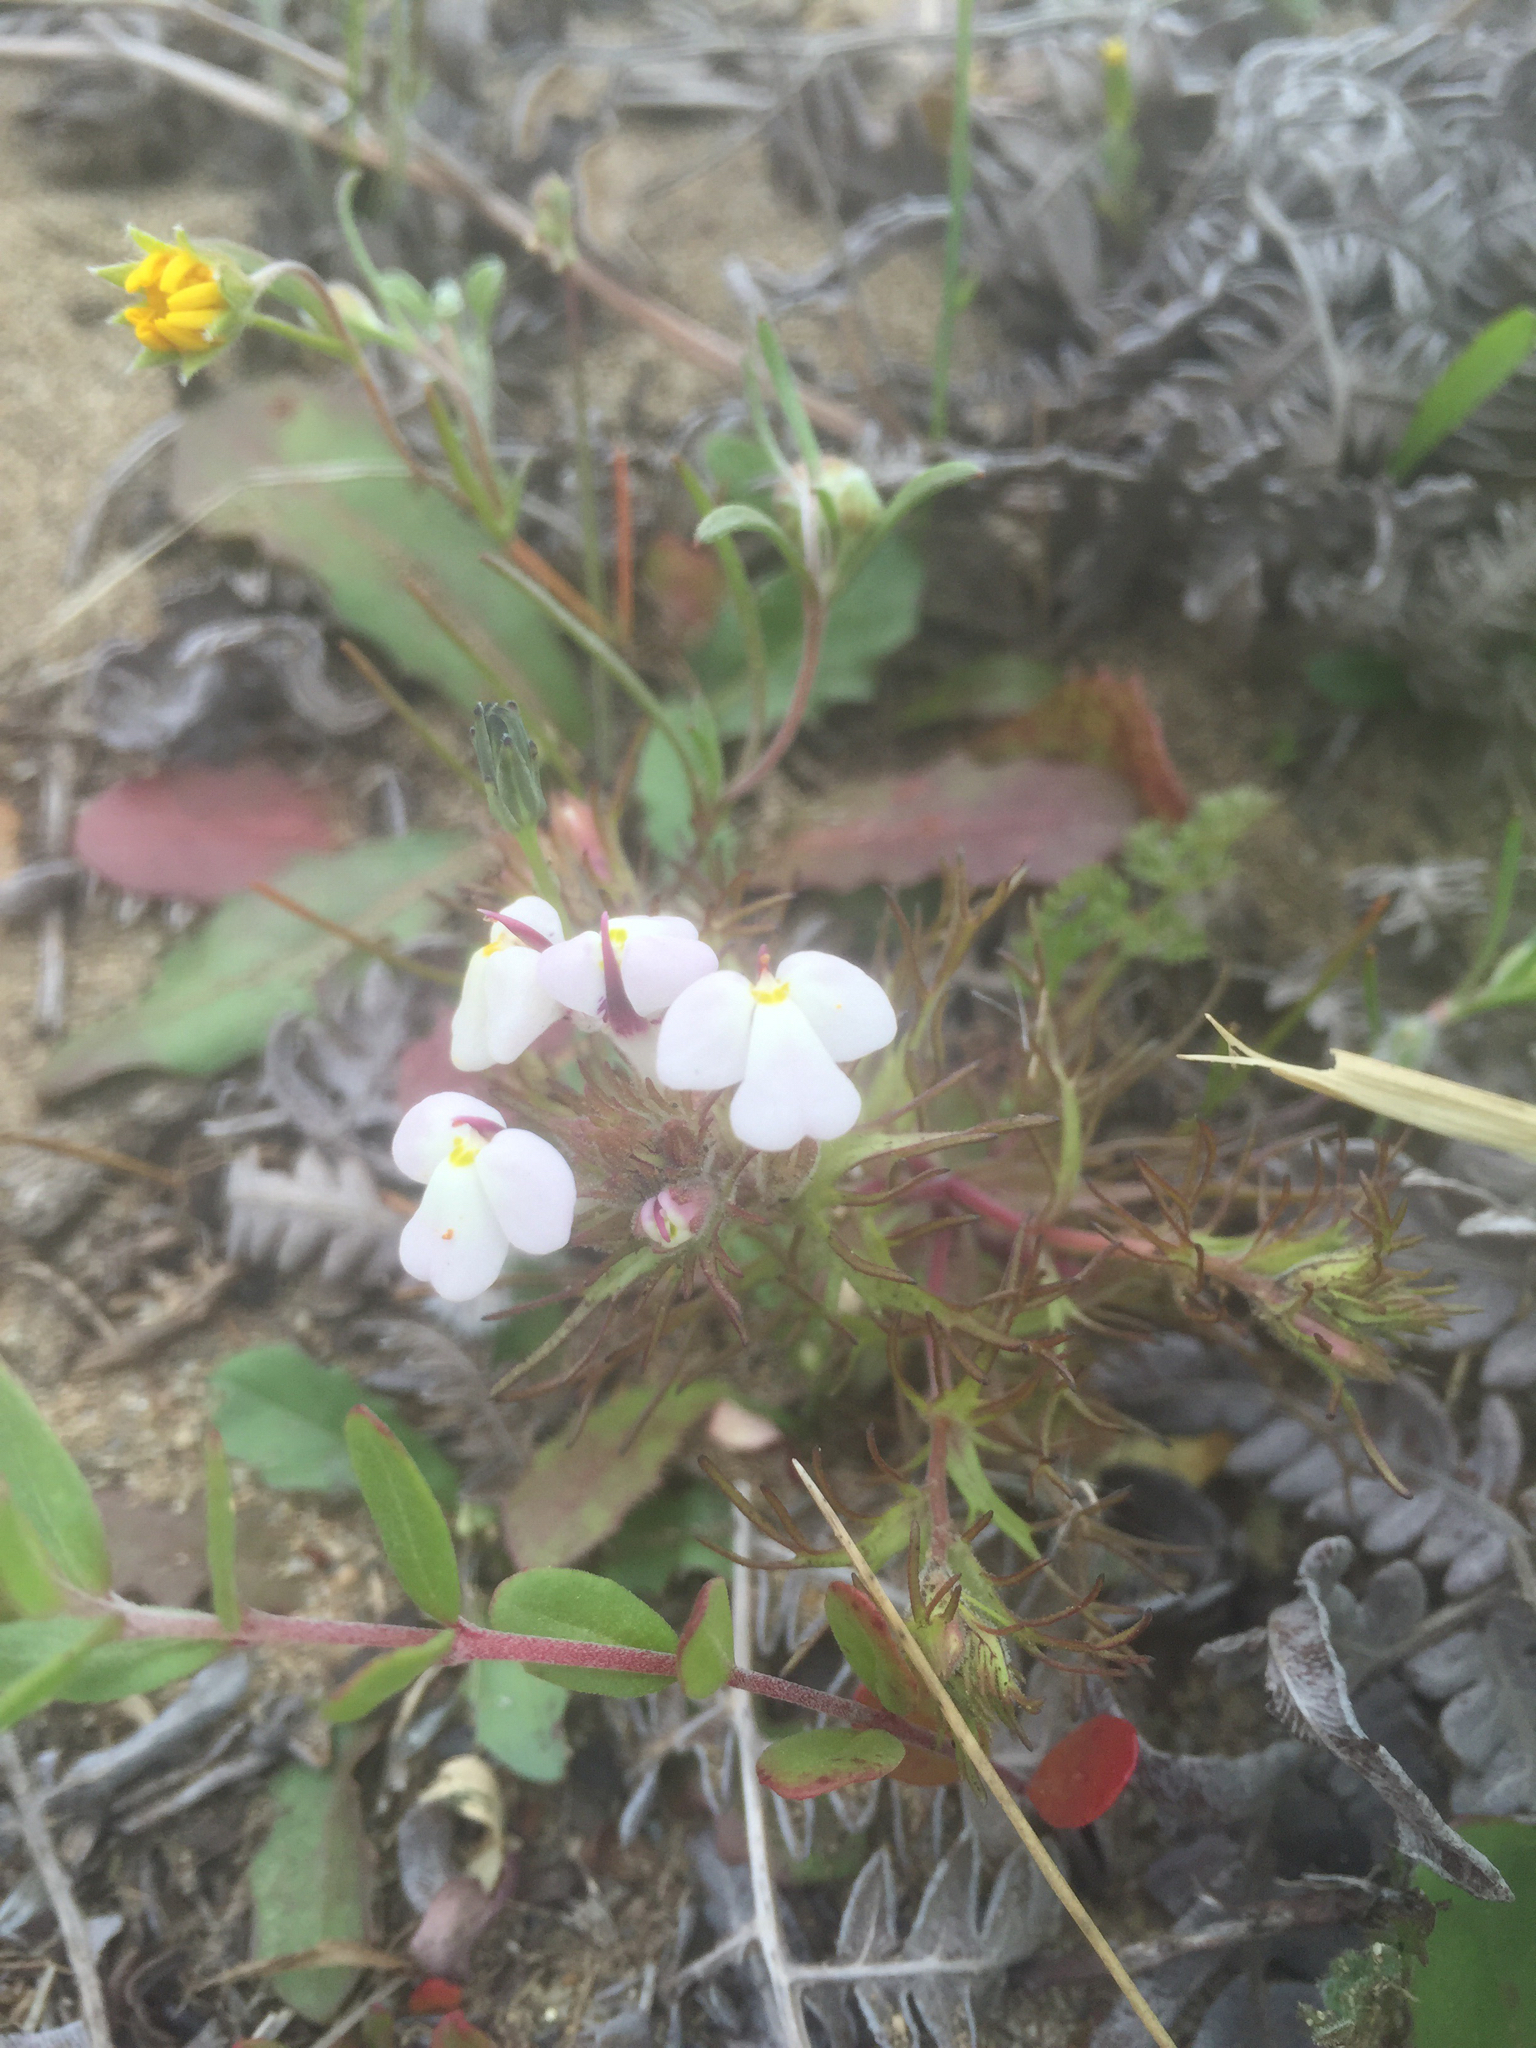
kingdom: Plantae
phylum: Tracheophyta
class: Magnoliopsida
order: Lamiales
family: Orobanchaceae
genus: Triphysaria
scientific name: Triphysaria eriantha
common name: Johnny-tuck
